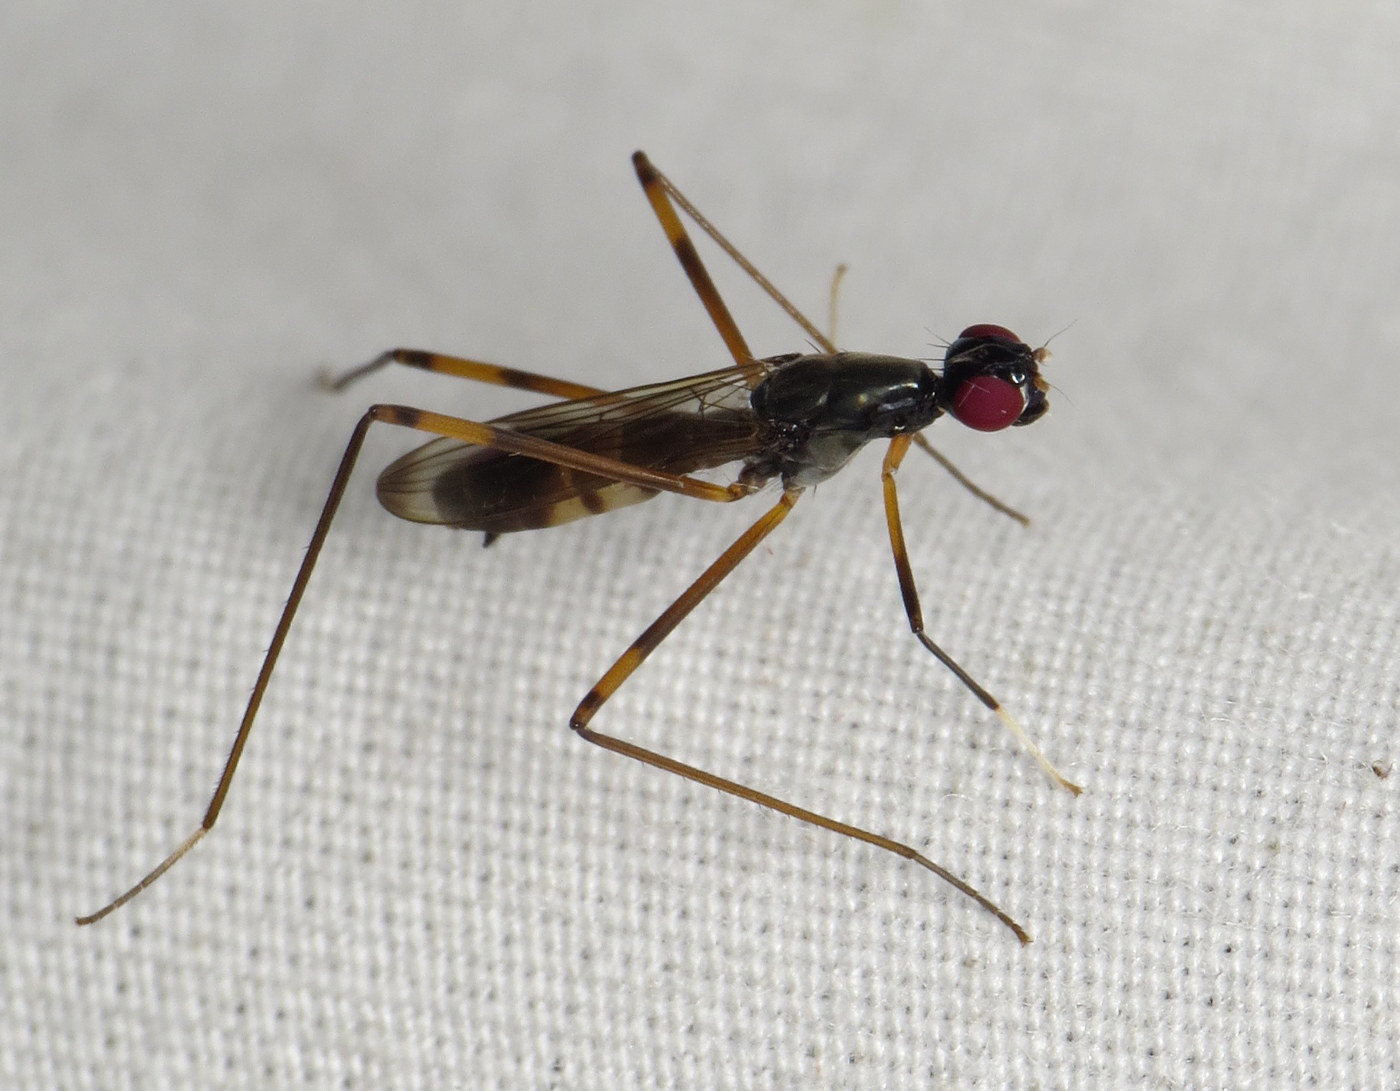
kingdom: Animalia
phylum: Arthropoda
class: Insecta
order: Diptera
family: Micropezidae
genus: Rainieria
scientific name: Rainieria antennaepes
